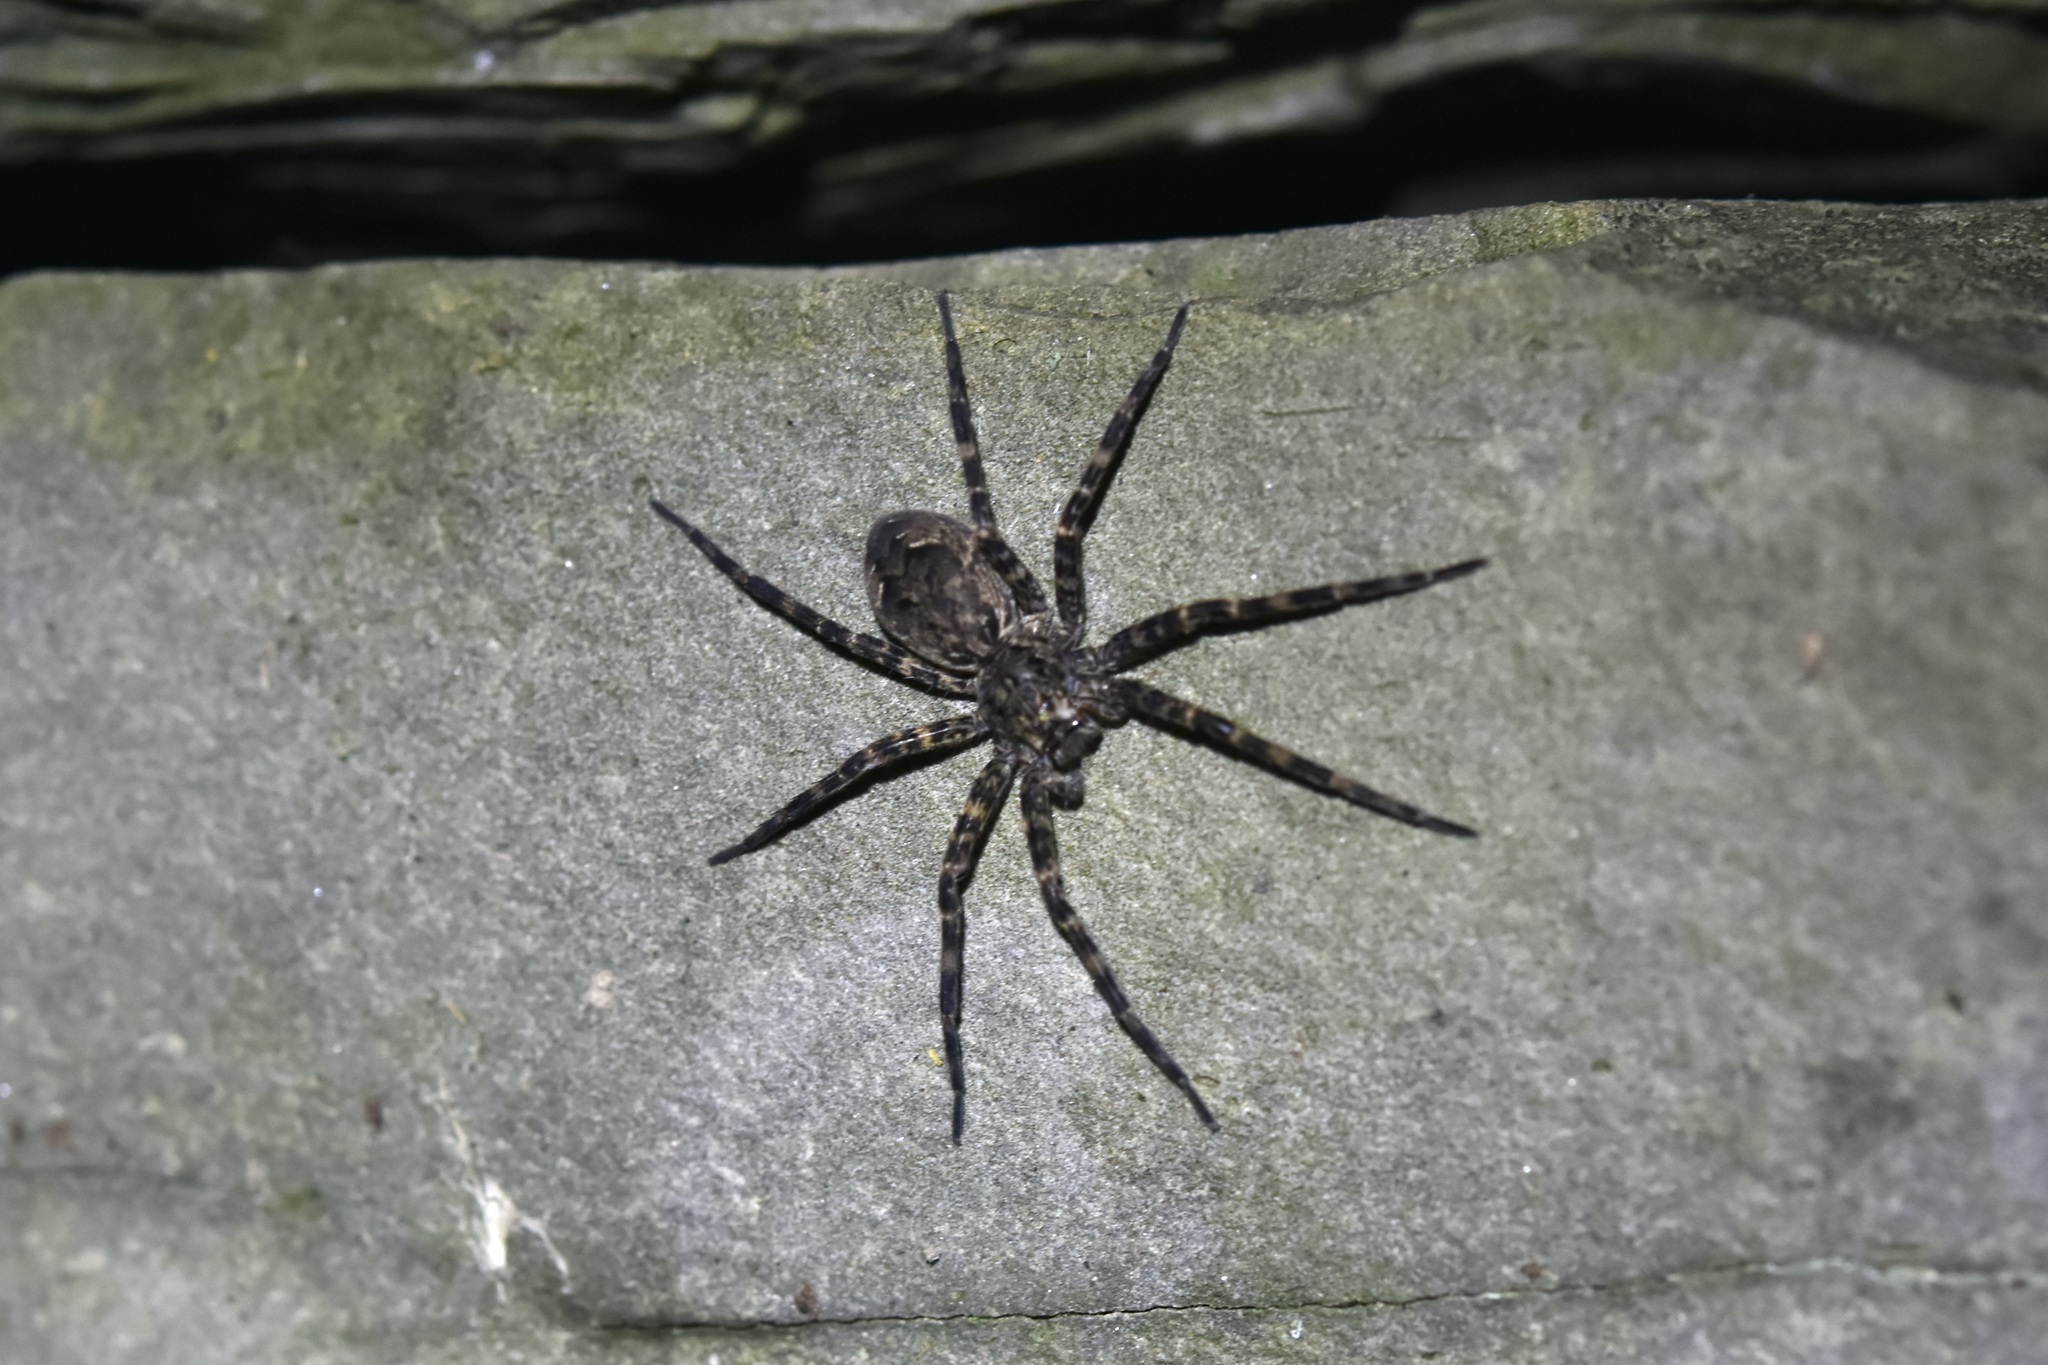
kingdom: Animalia
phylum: Arthropoda
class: Arachnida
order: Araneae
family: Pisauridae
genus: Dolomedes
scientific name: Dolomedes tenebrosus
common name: Dark fishing spider
